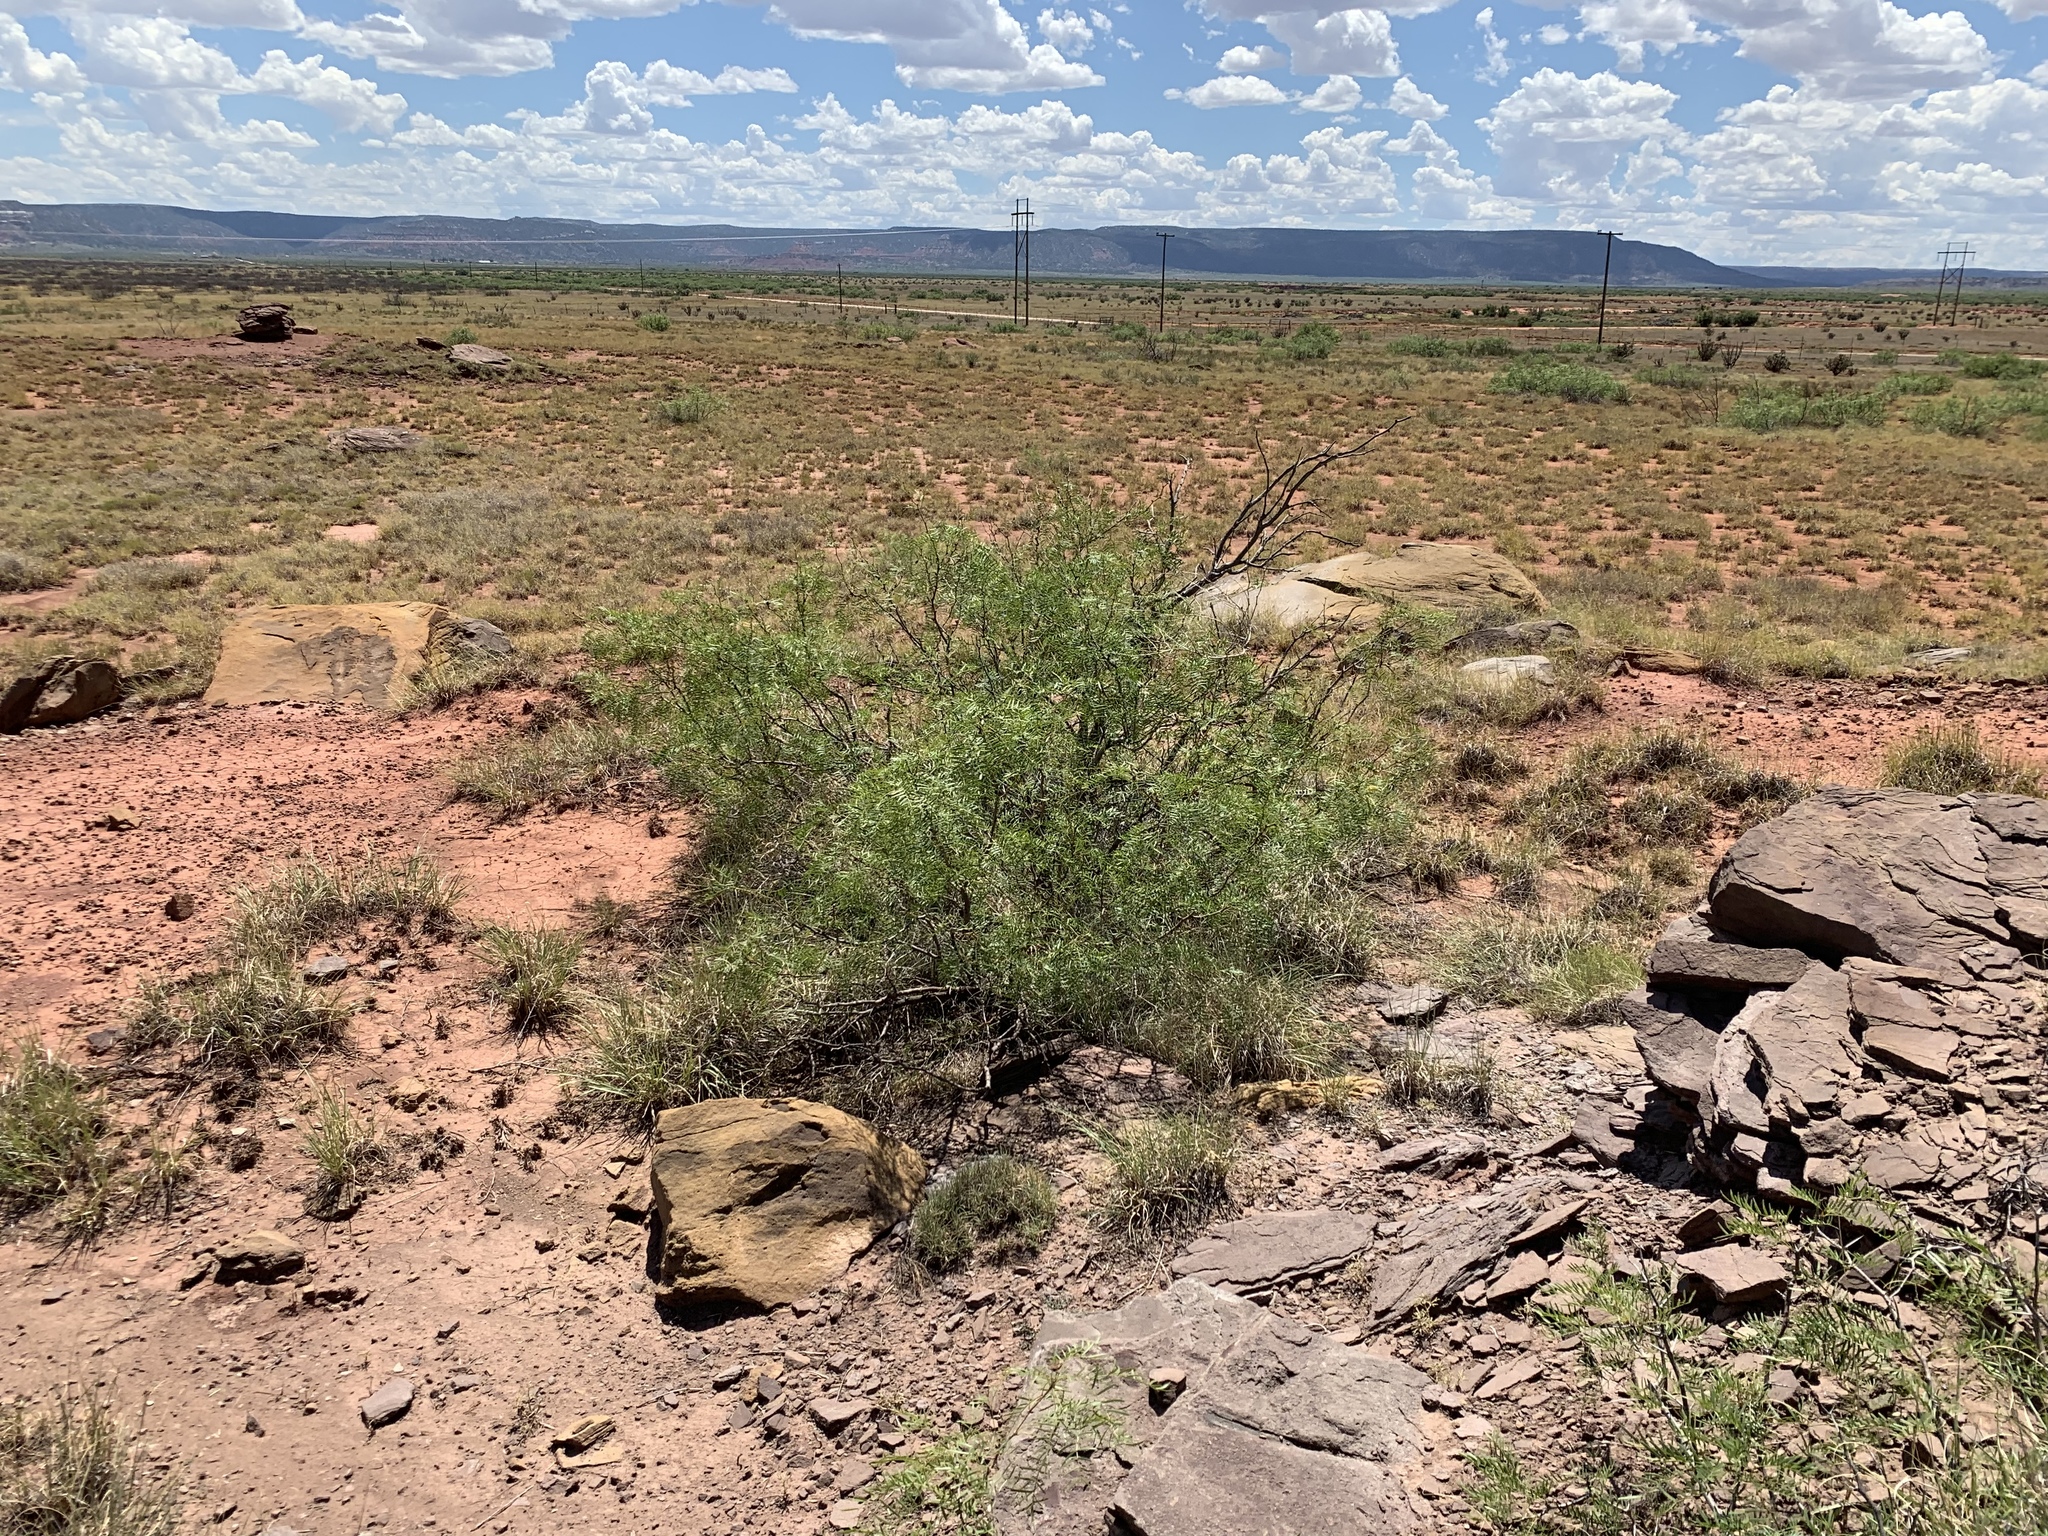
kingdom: Plantae
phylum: Tracheophyta
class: Magnoliopsida
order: Fabales
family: Fabaceae
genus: Prosopis
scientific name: Prosopis glandulosa
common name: Honey mesquite
